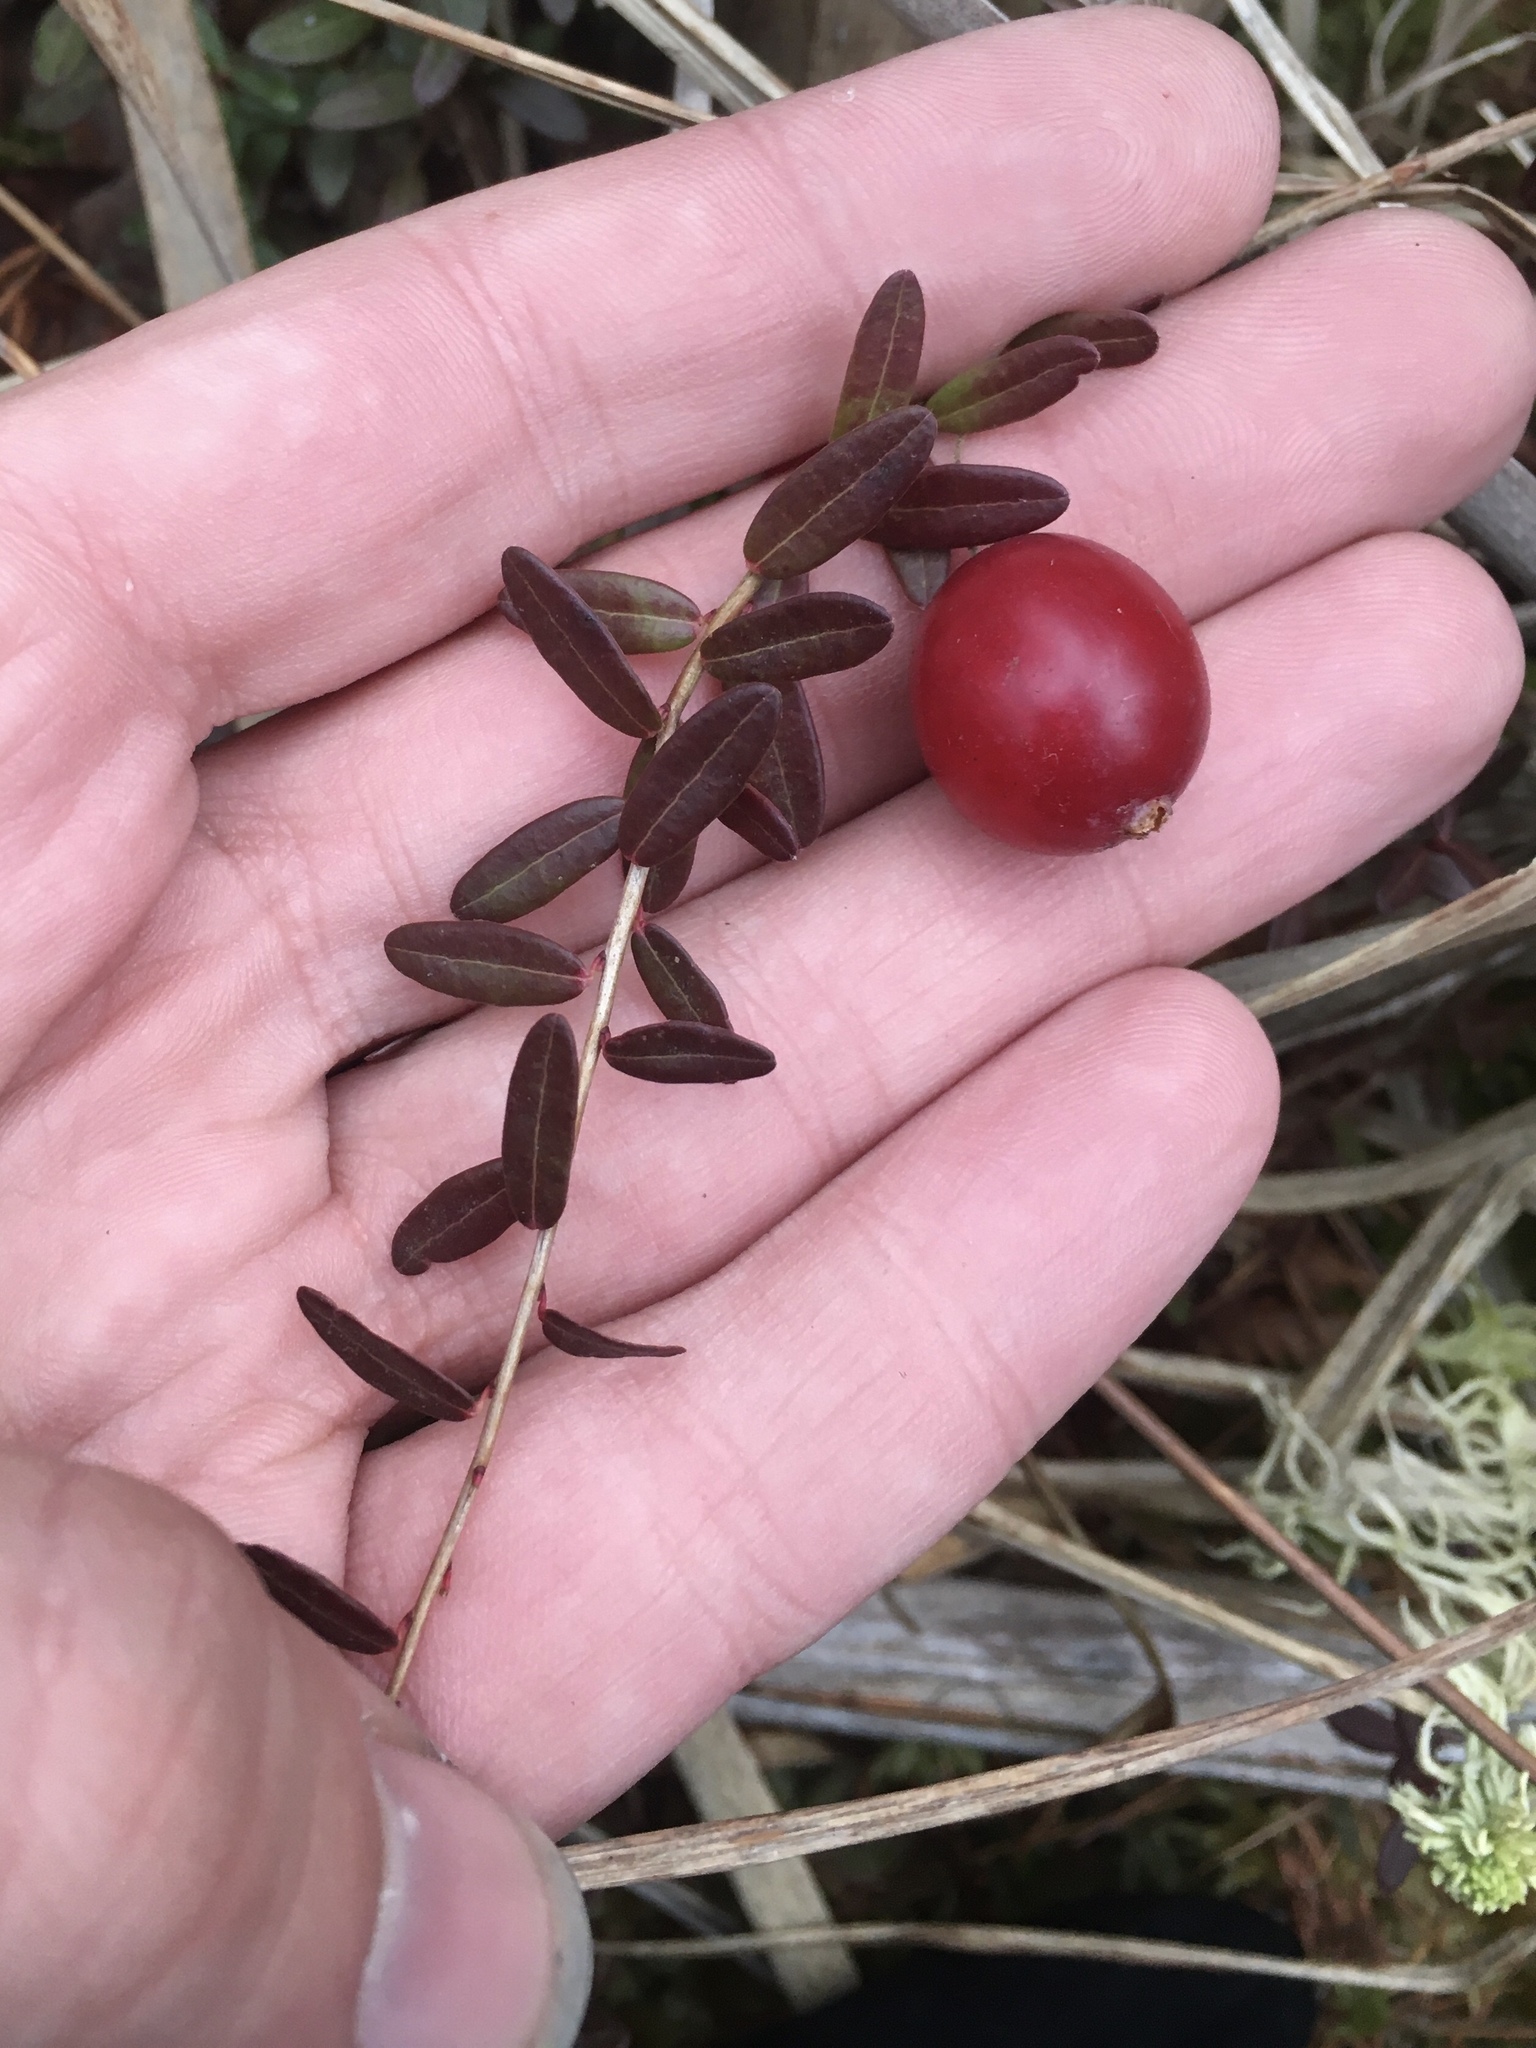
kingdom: Plantae
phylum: Tracheophyta
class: Magnoliopsida
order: Ericales
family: Ericaceae
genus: Vaccinium
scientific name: Vaccinium macrocarpon
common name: American cranberry
